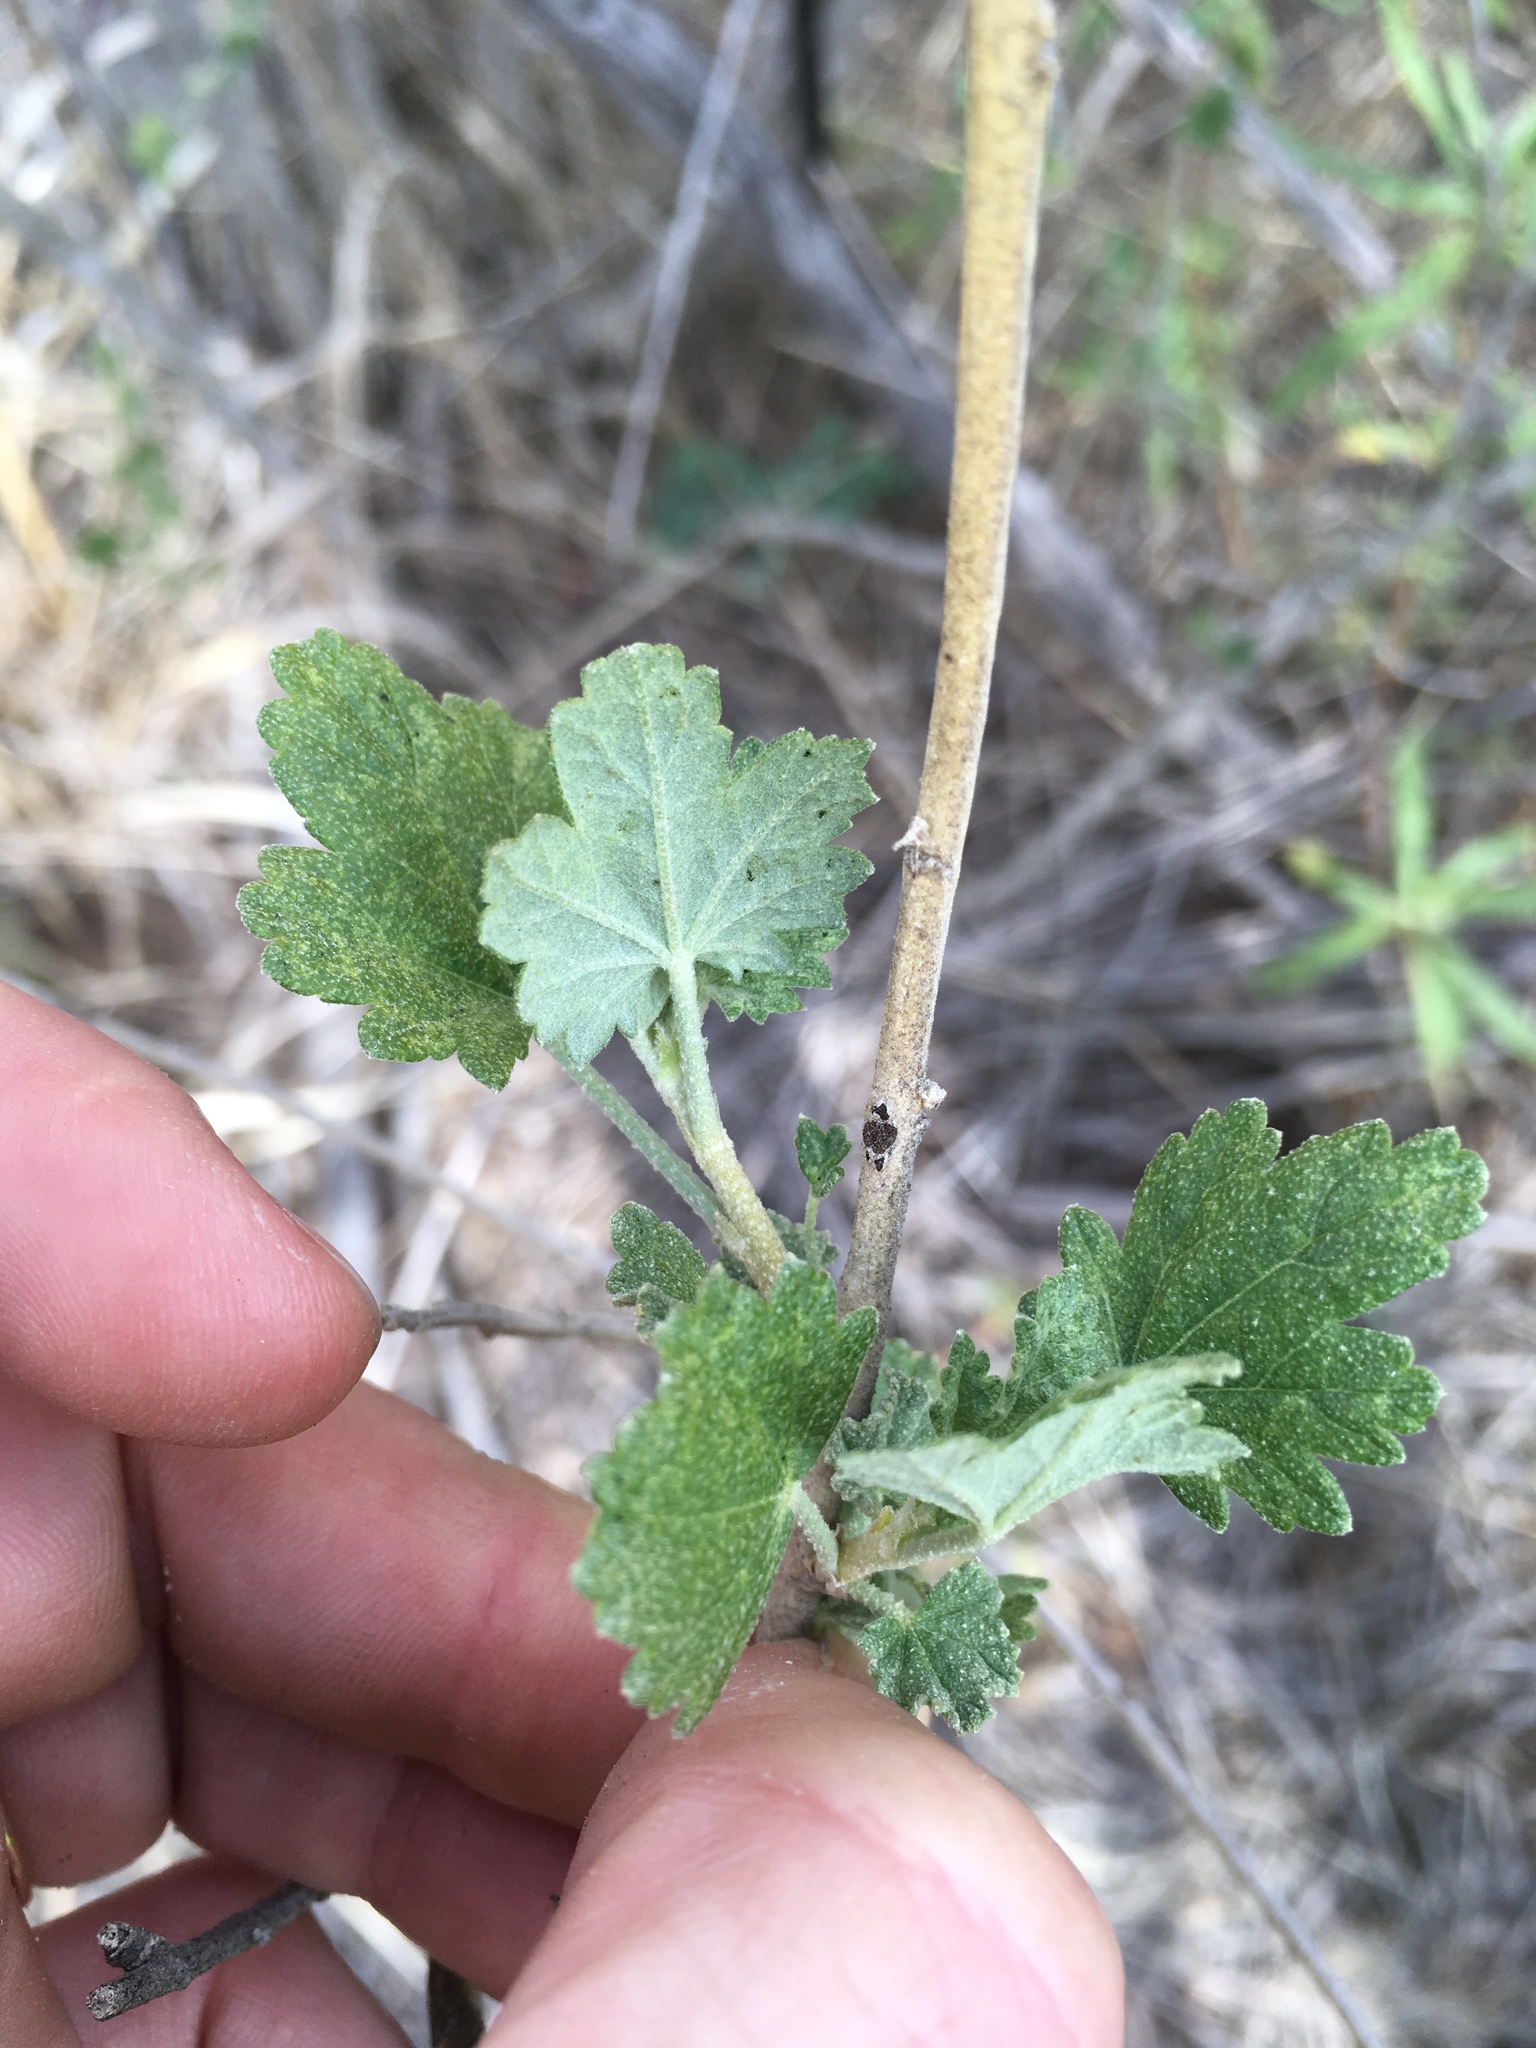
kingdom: Plantae
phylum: Tracheophyta
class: Magnoliopsida
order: Malvales
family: Malvaceae
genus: Malacothamnus
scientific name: Malacothamnus fasciculatus
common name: Sant cruz island bush-mallow
